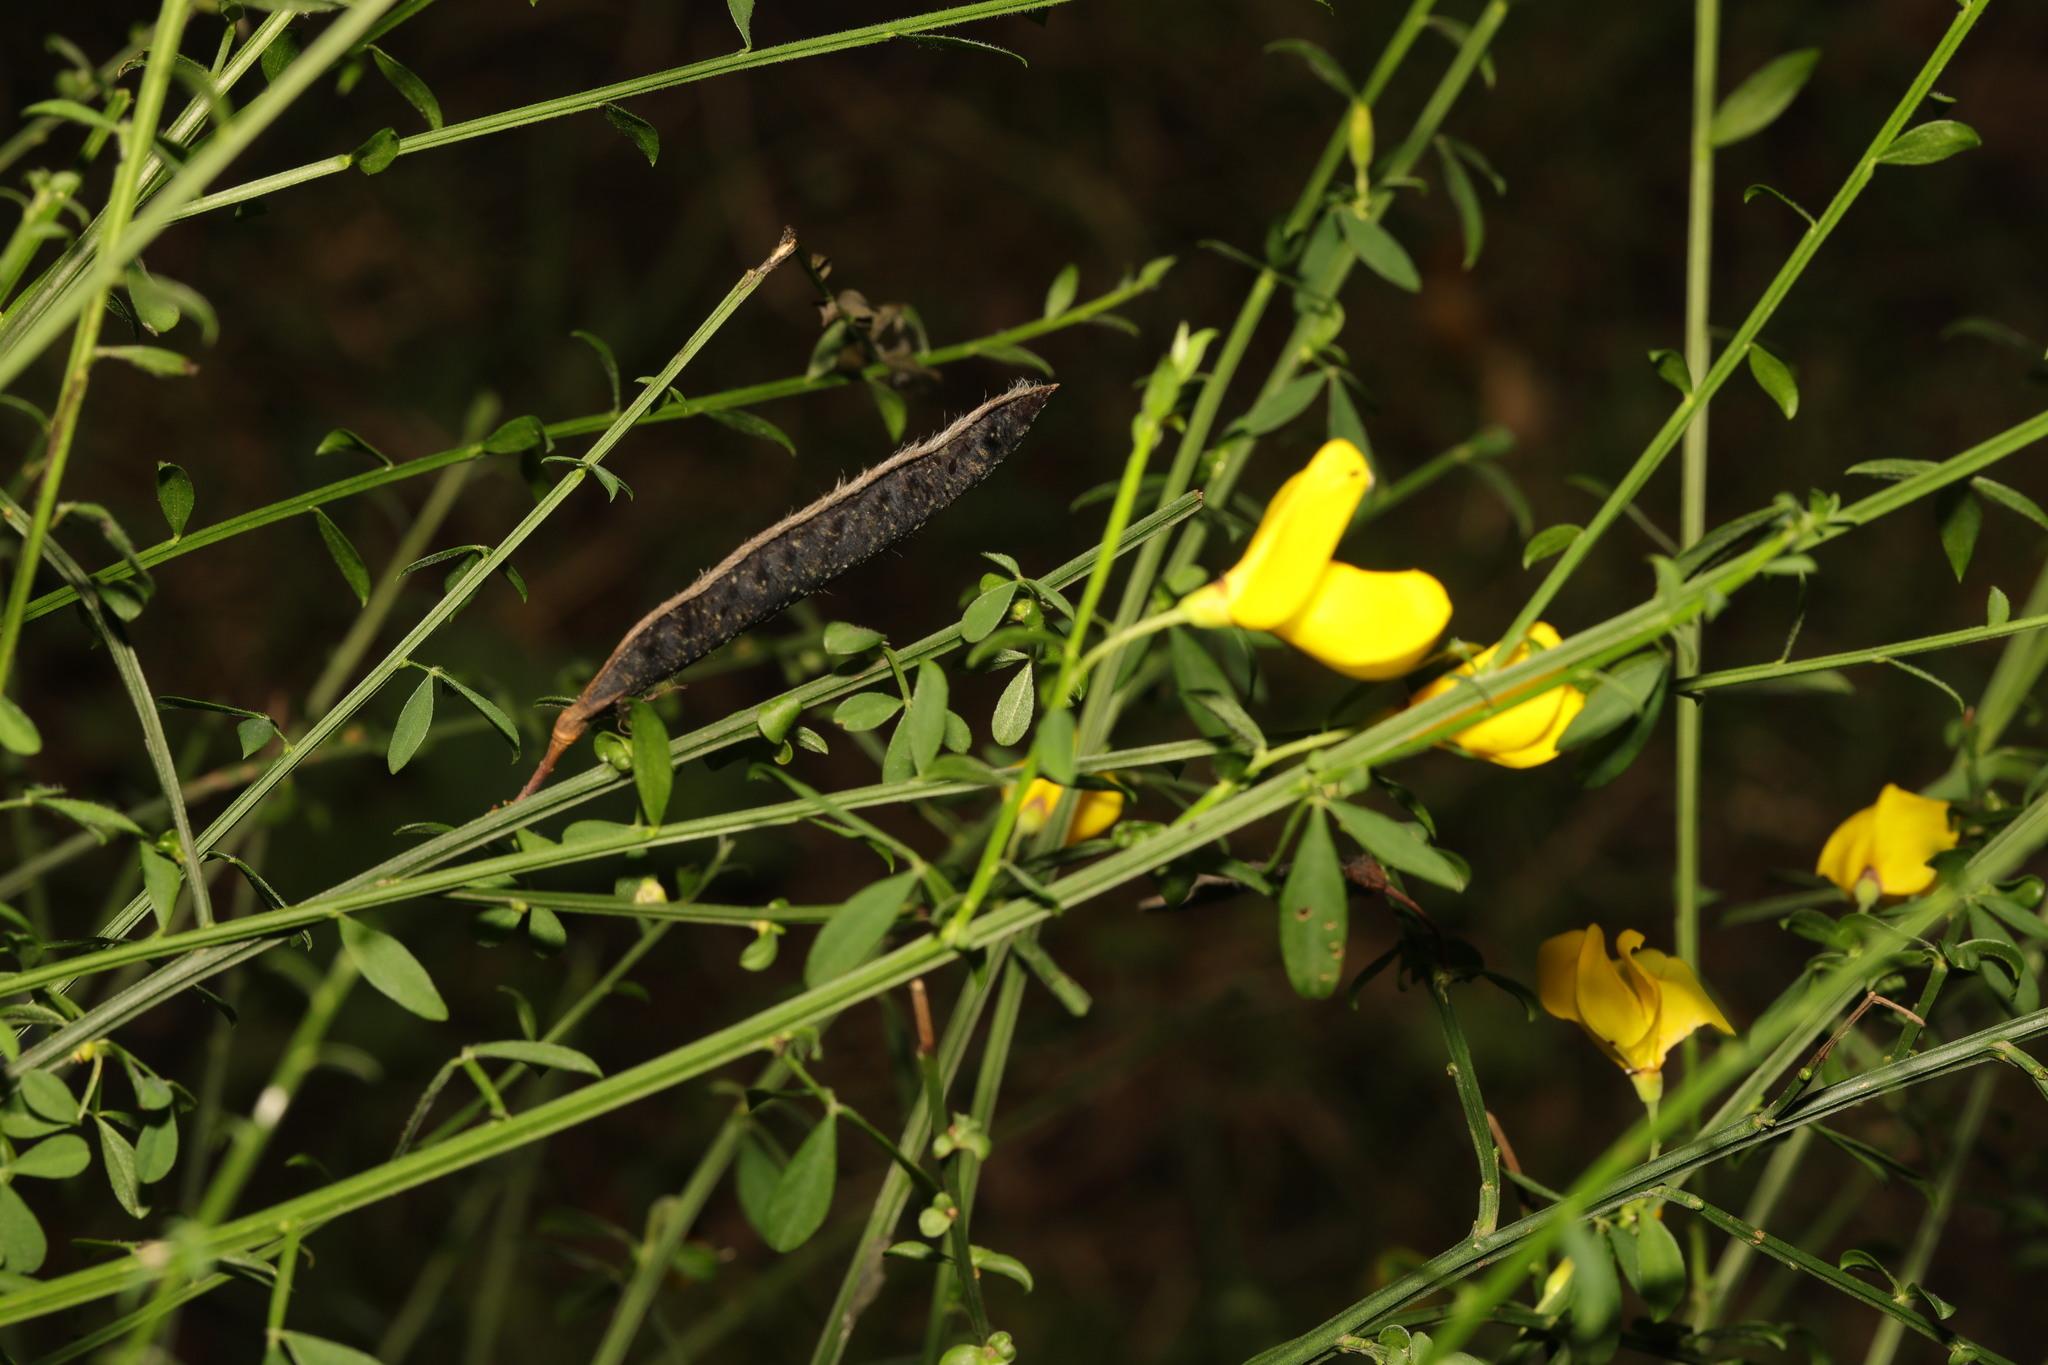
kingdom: Plantae
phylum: Tracheophyta
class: Magnoliopsida
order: Fabales
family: Fabaceae
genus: Cytisus
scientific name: Cytisus scoparius
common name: Scotch broom
